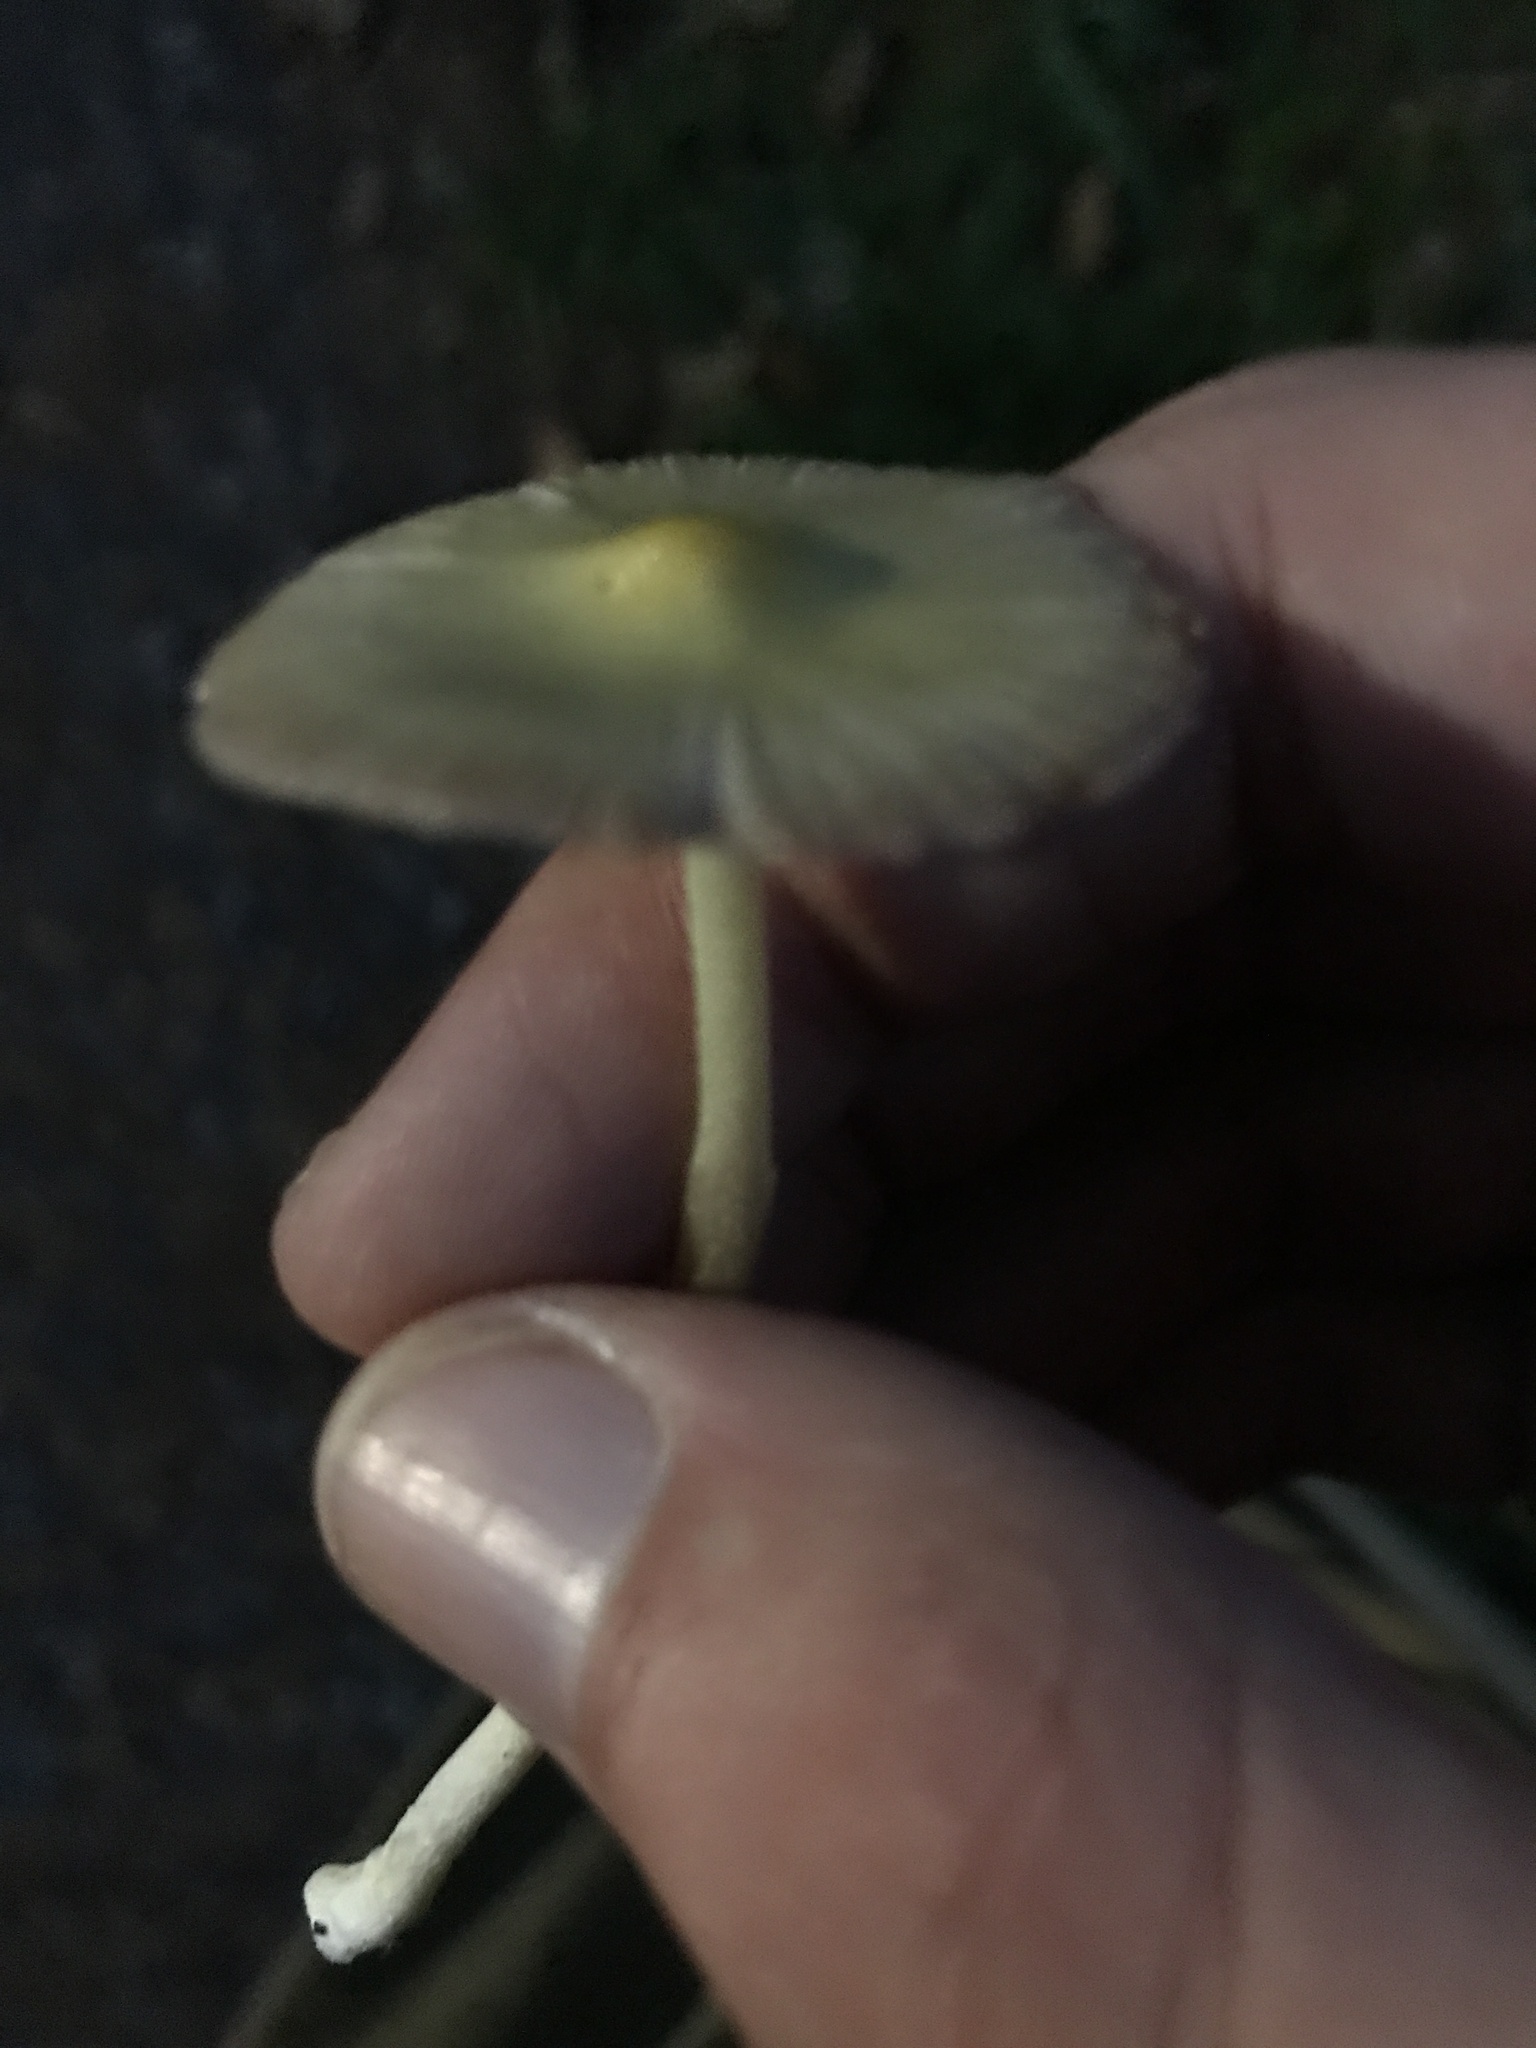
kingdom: Fungi
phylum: Basidiomycota
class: Agaricomycetes
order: Agaricales
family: Bolbitiaceae
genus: Bolbitius
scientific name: Bolbitius titubans
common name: Yellow fieldcap
